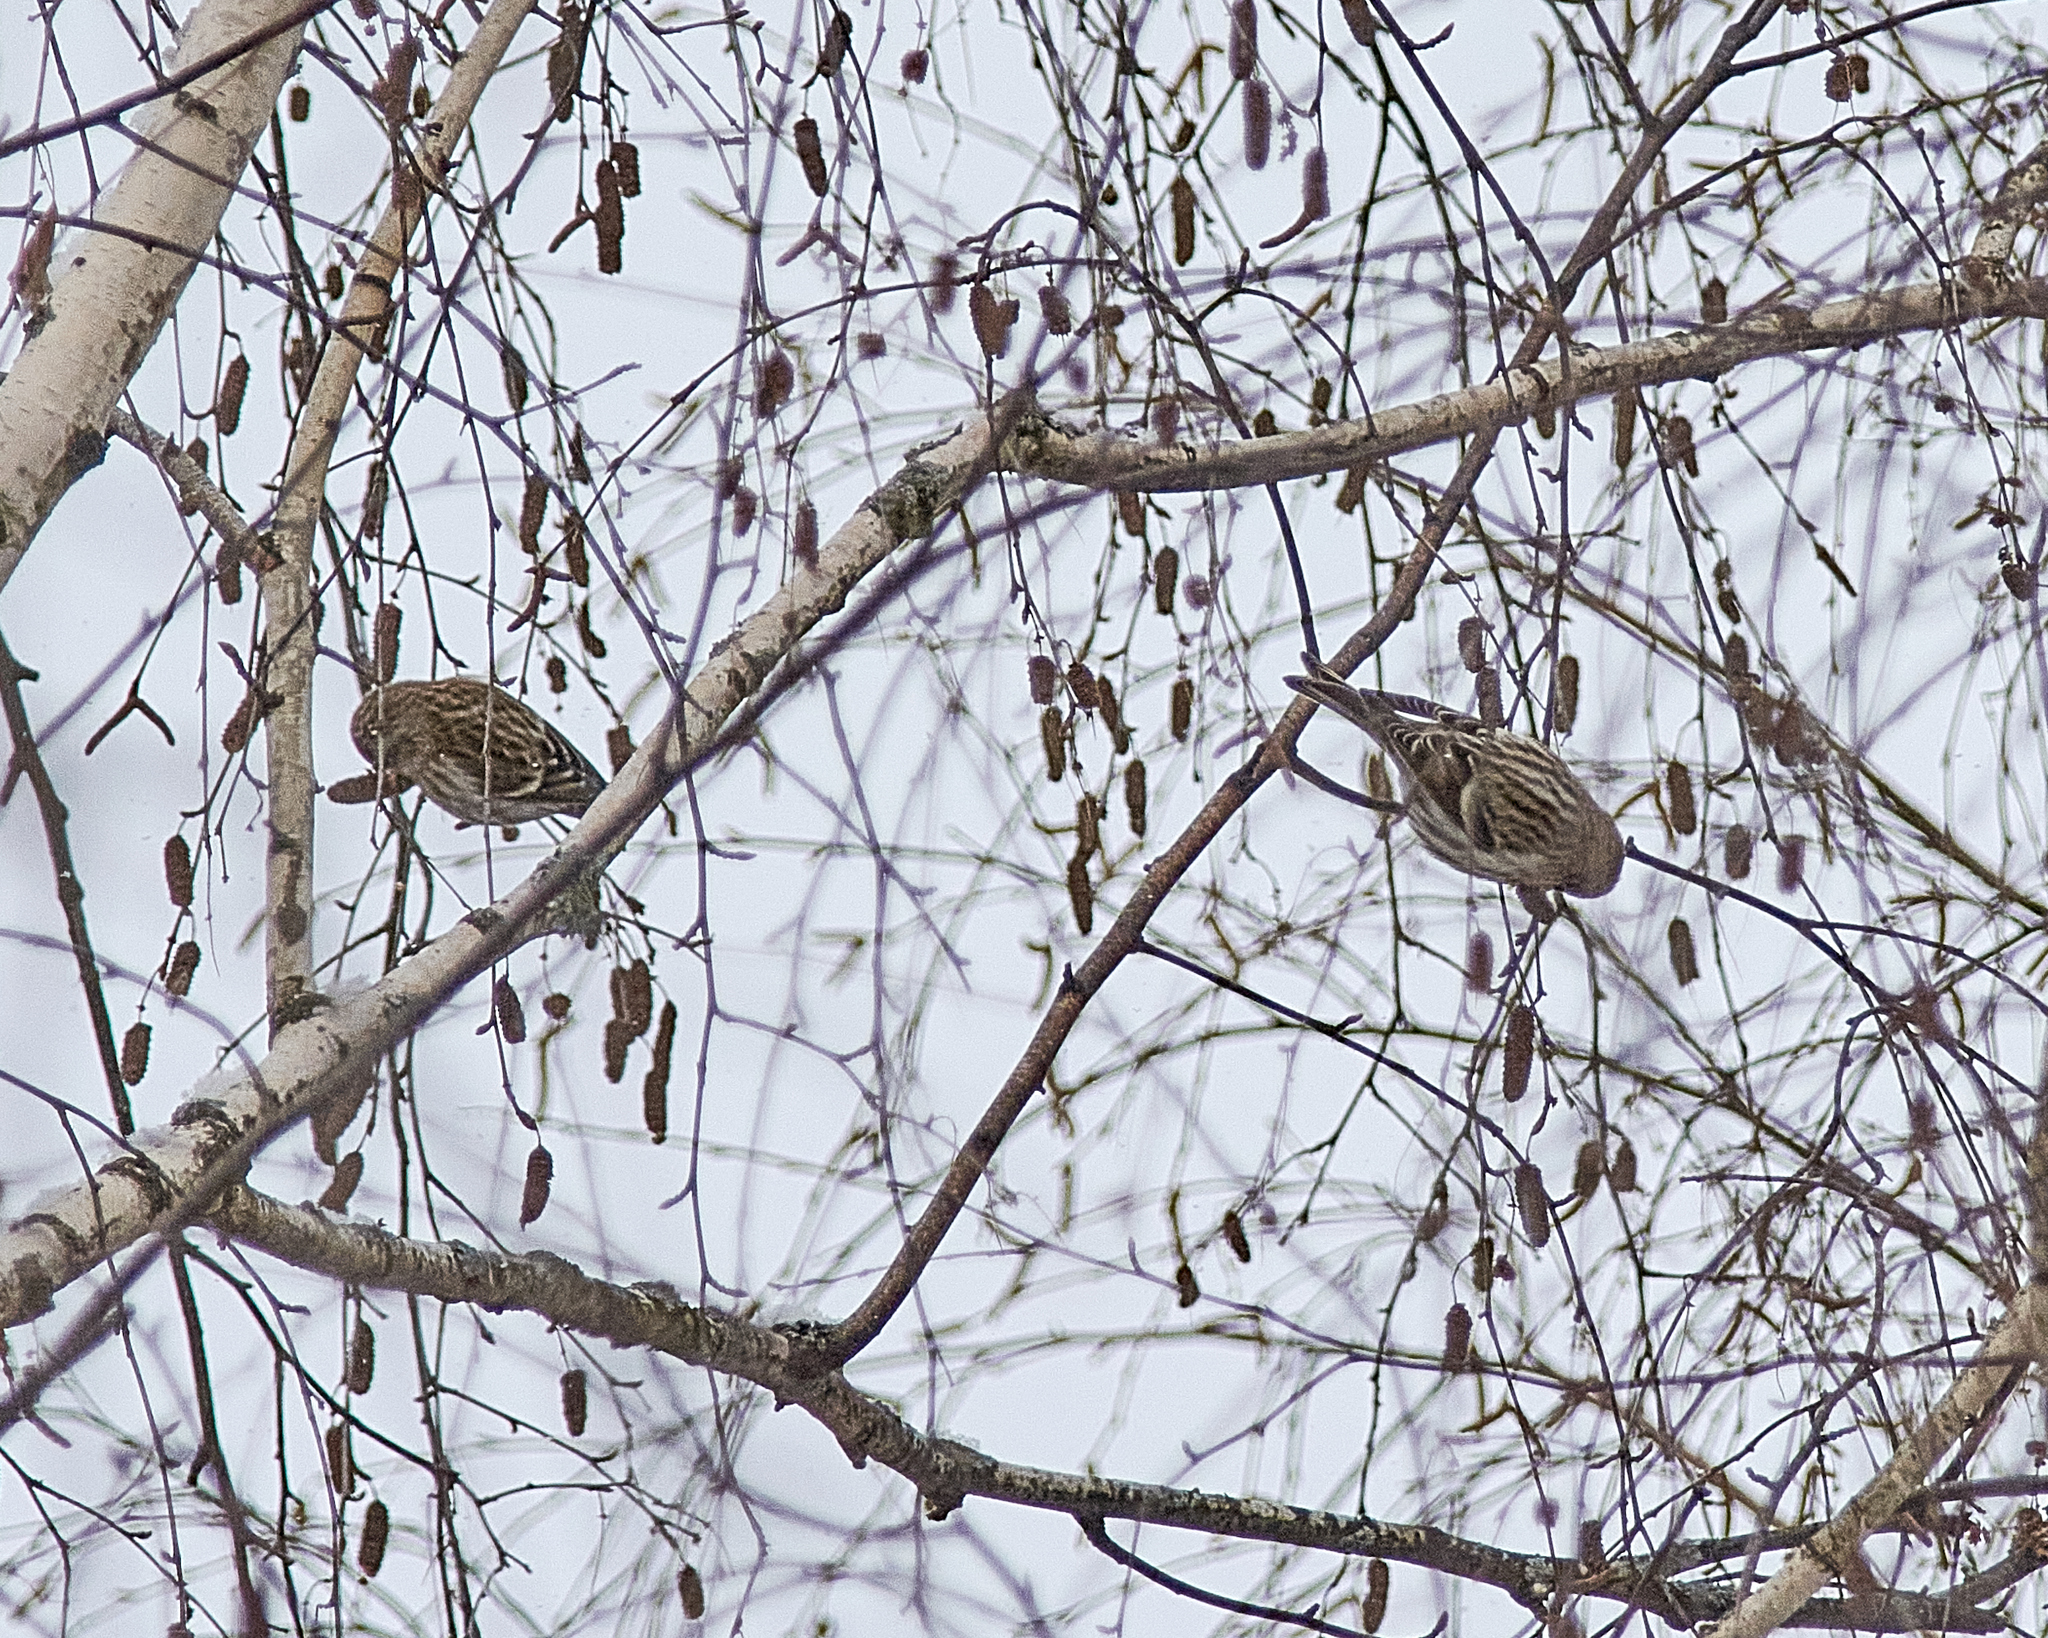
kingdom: Animalia
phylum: Chordata
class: Aves
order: Passeriformes
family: Fringillidae
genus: Acanthis
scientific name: Acanthis flammea
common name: Common redpoll
